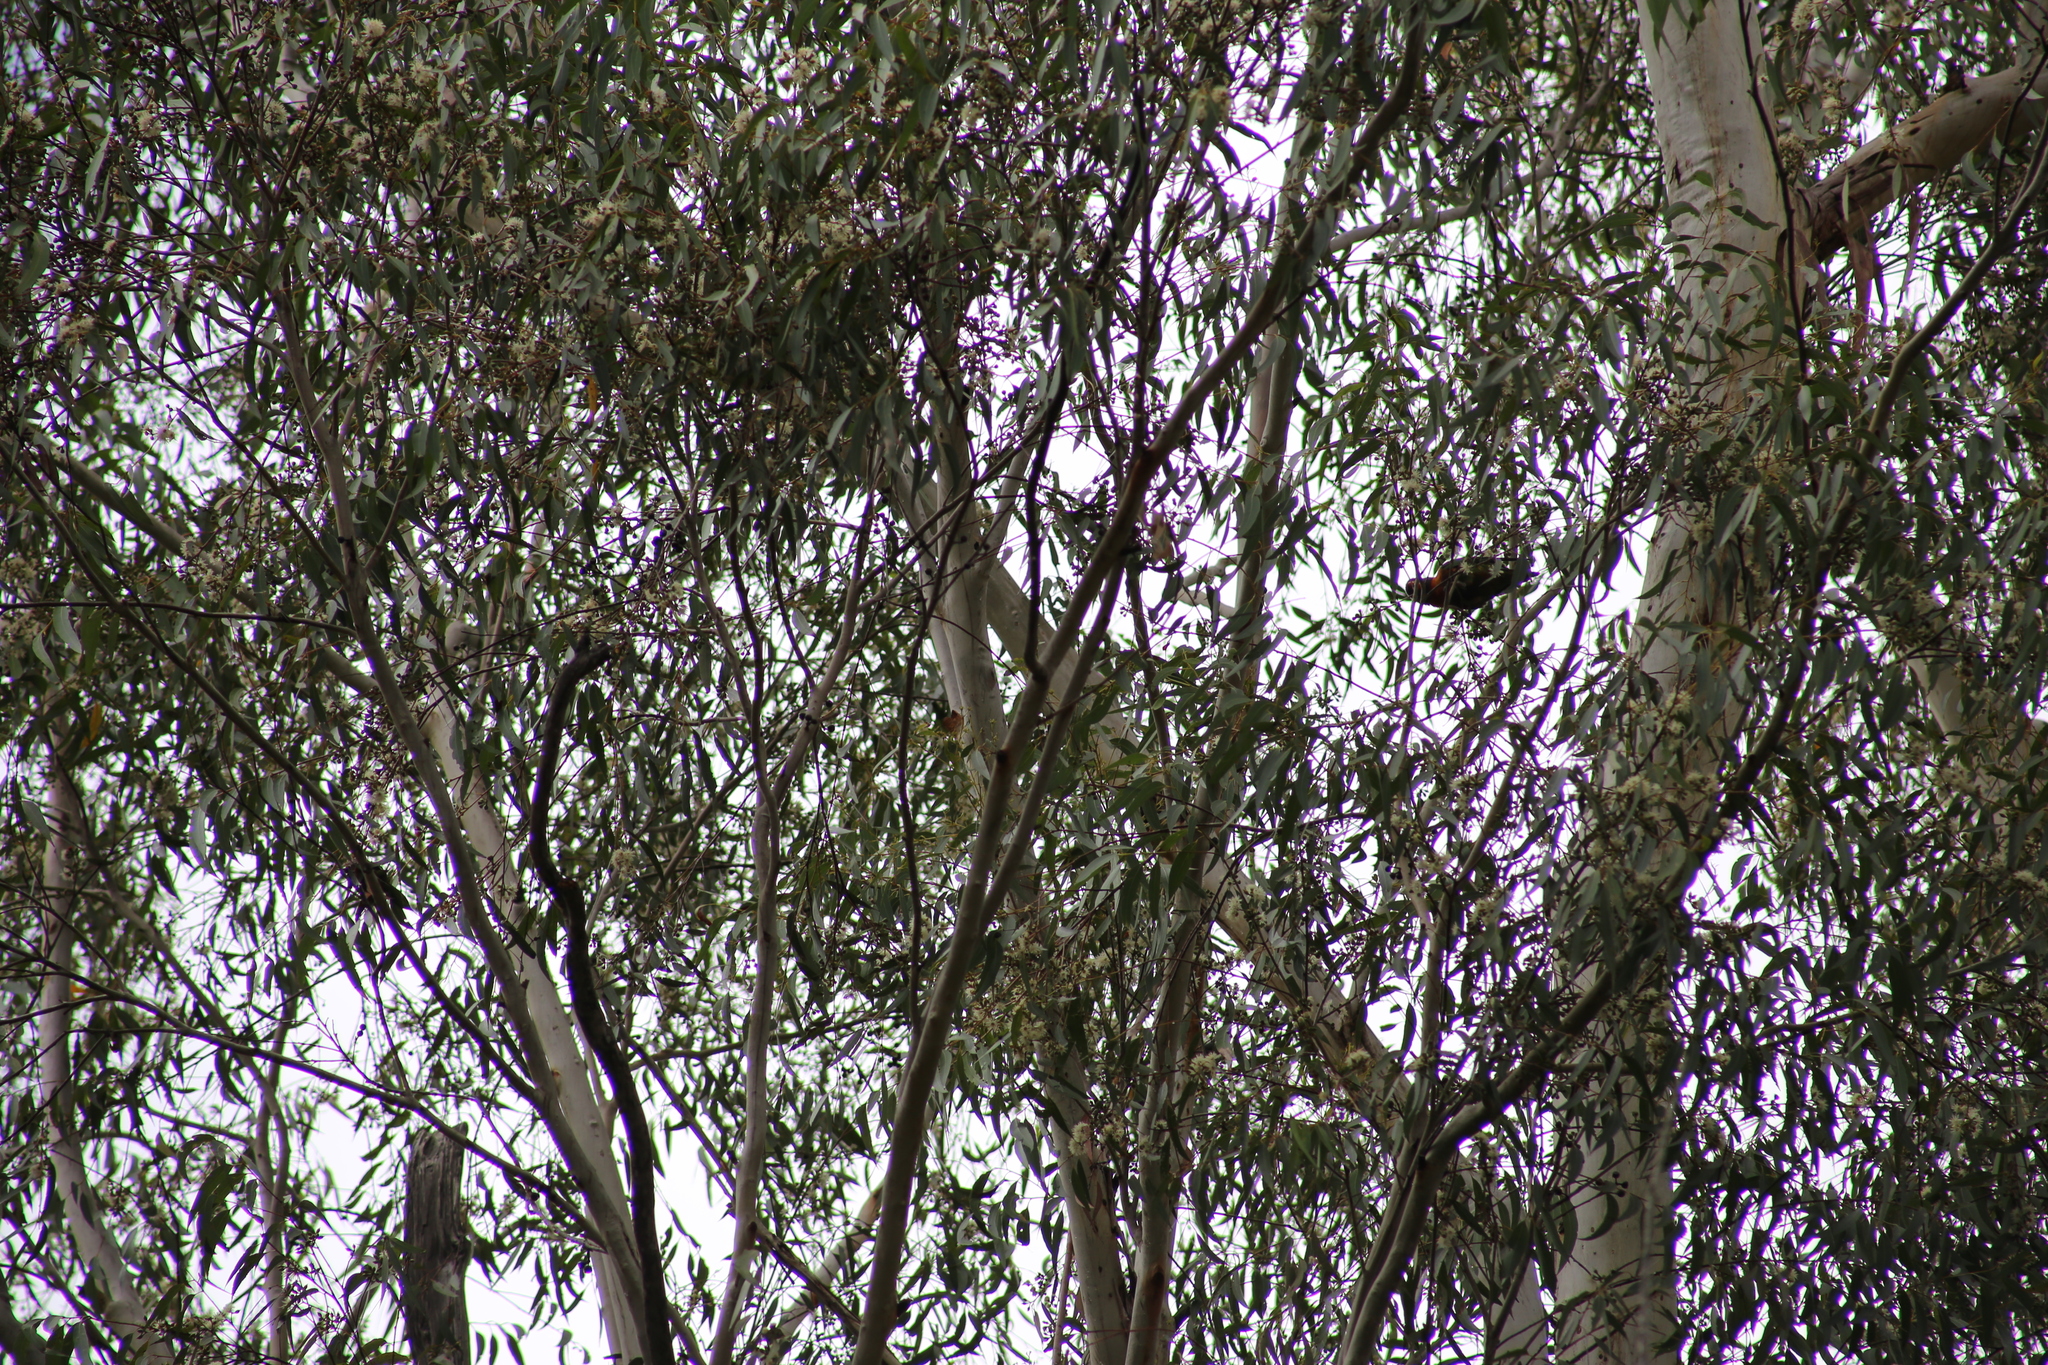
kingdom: Animalia
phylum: Chordata
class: Aves
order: Psittaciformes
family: Psittacidae
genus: Trichoglossus
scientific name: Trichoglossus haematodus
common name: Coconut lorikeet
